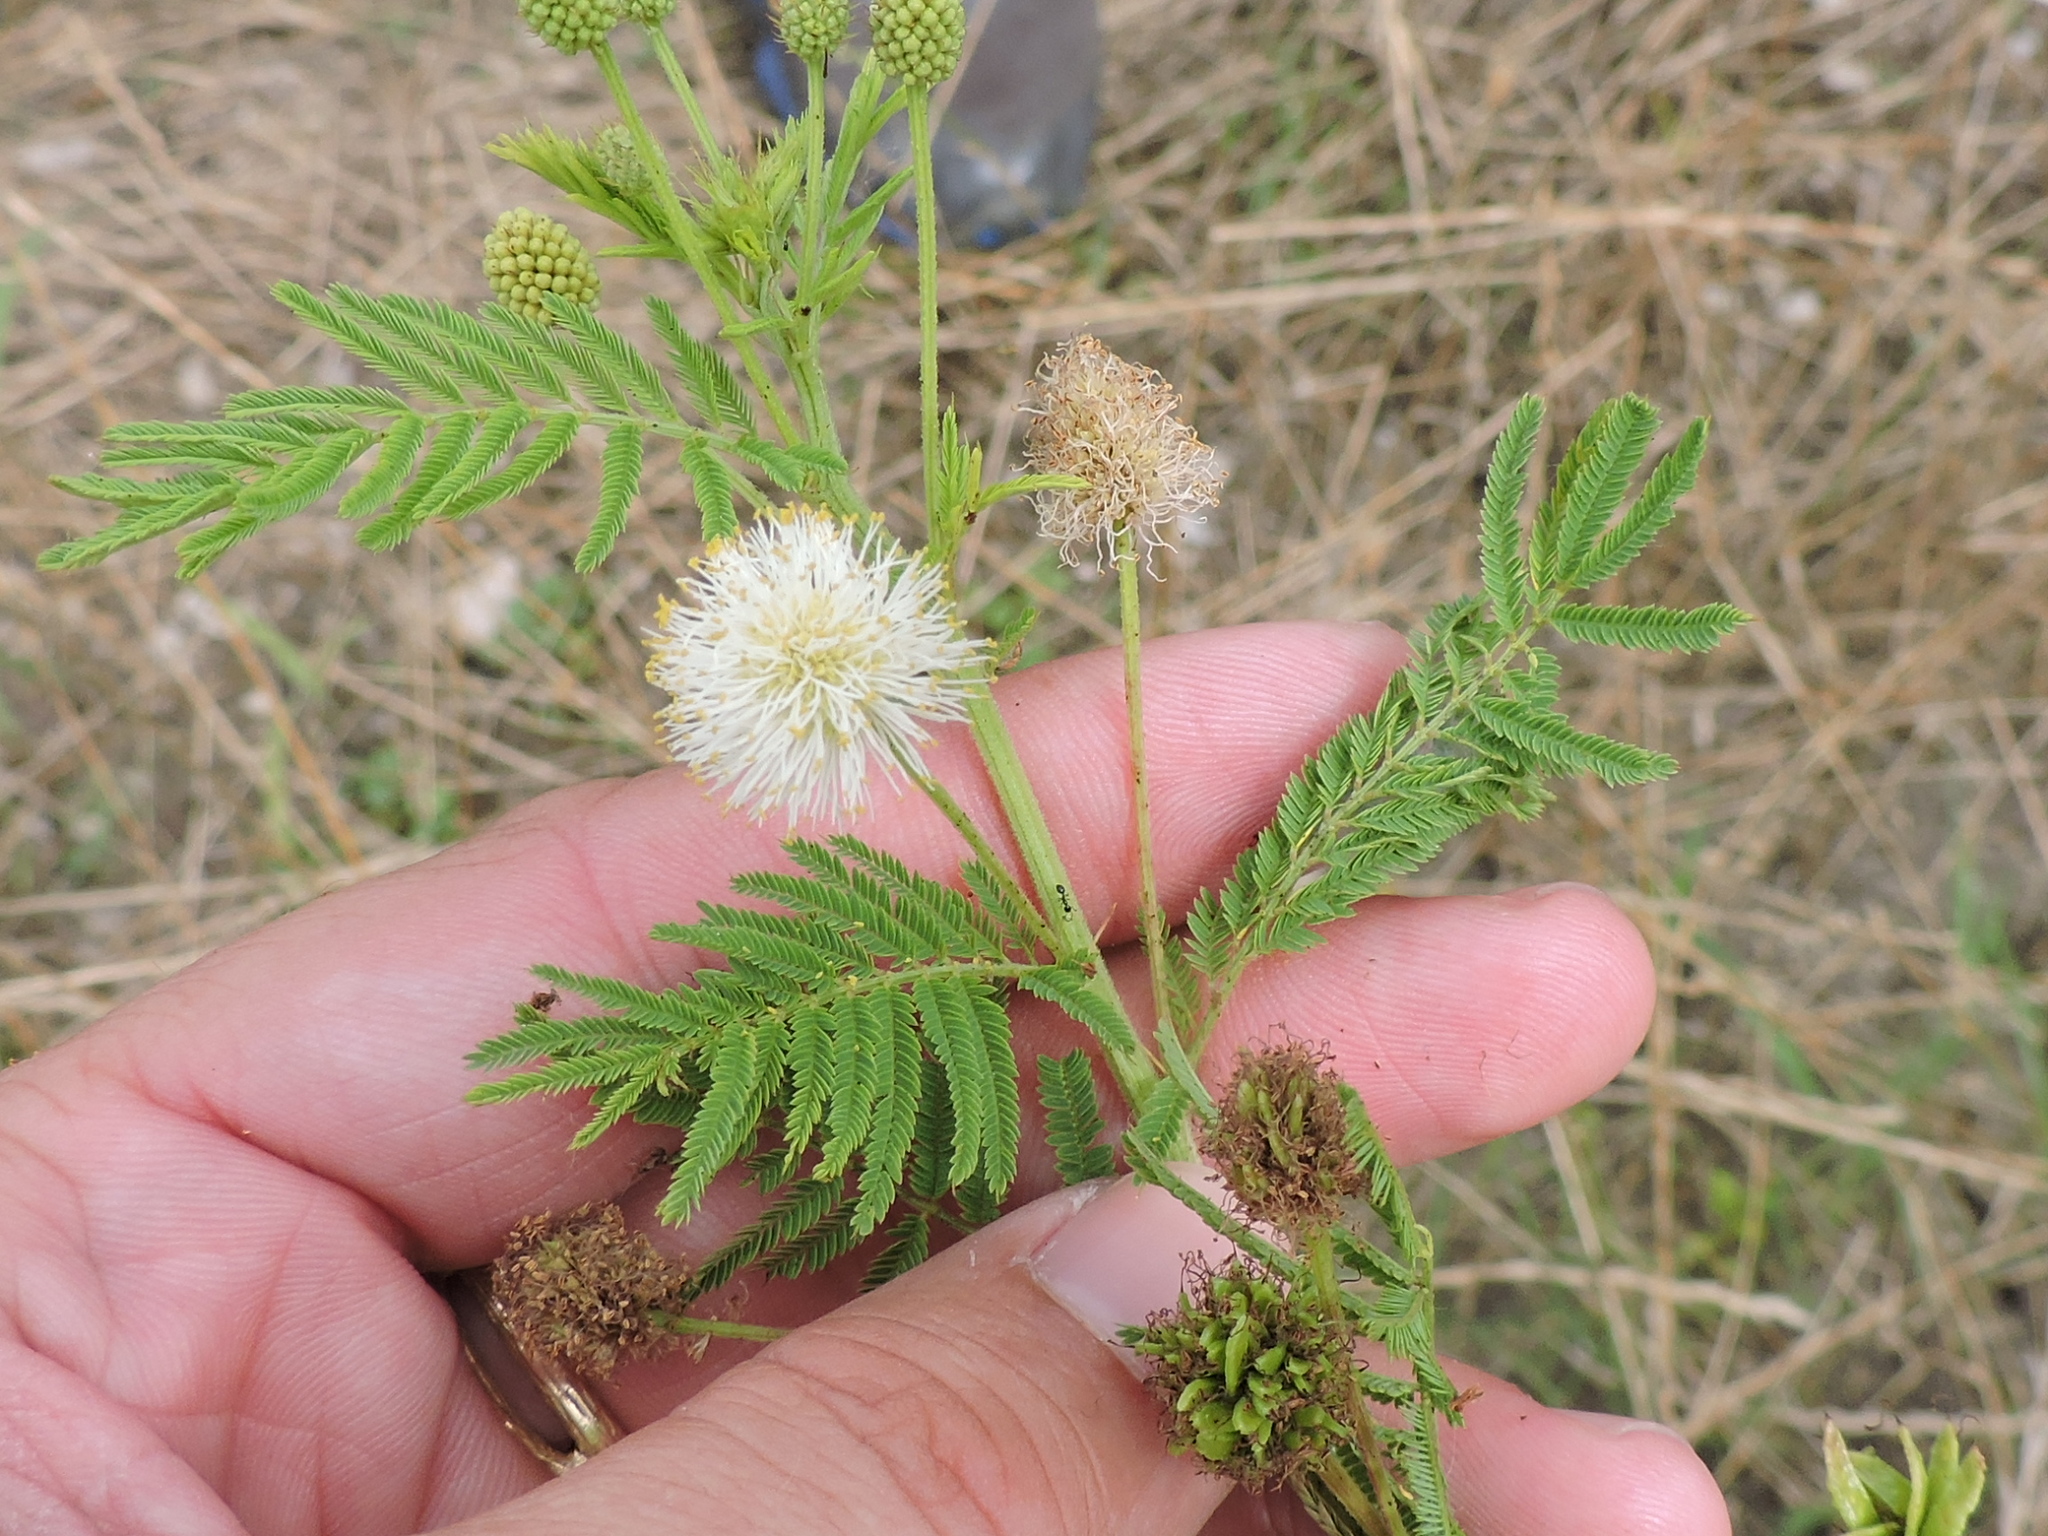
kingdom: Plantae
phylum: Tracheophyta
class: Magnoliopsida
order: Fabales
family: Fabaceae
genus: Desmanthus
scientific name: Desmanthus illinoensis
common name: Illinois bundle-flower
